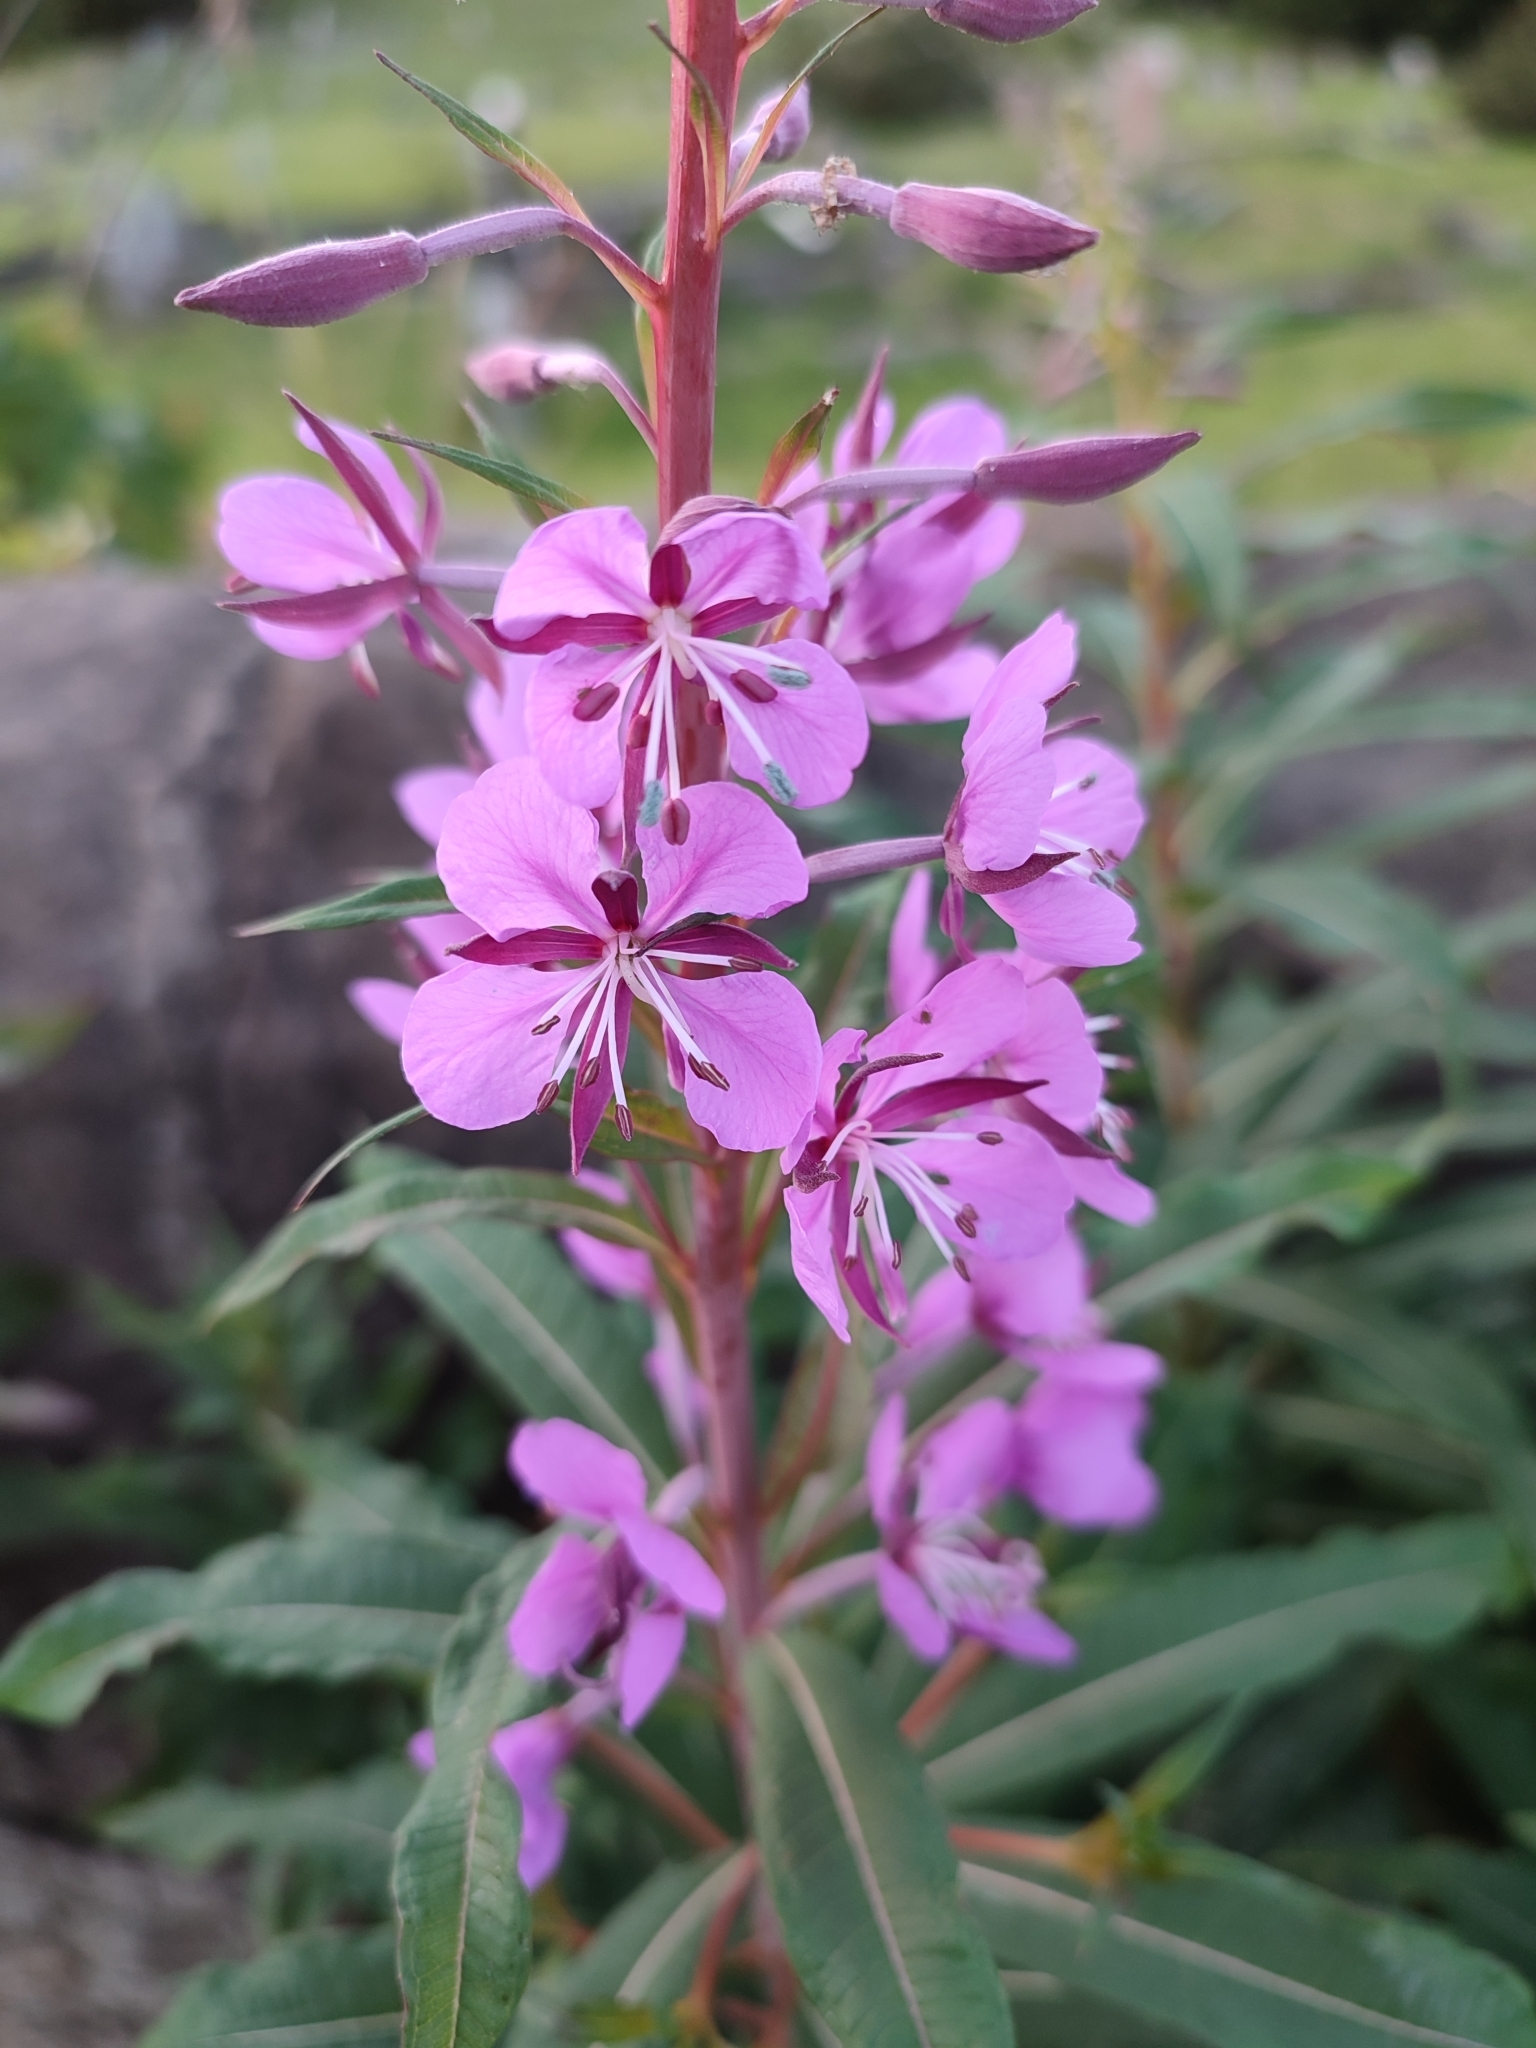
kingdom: Plantae
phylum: Tracheophyta
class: Magnoliopsida
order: Myrtales
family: Onagraceae
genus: Chamaenerion
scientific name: Chamaenerion angustifolium
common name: Fireweed
